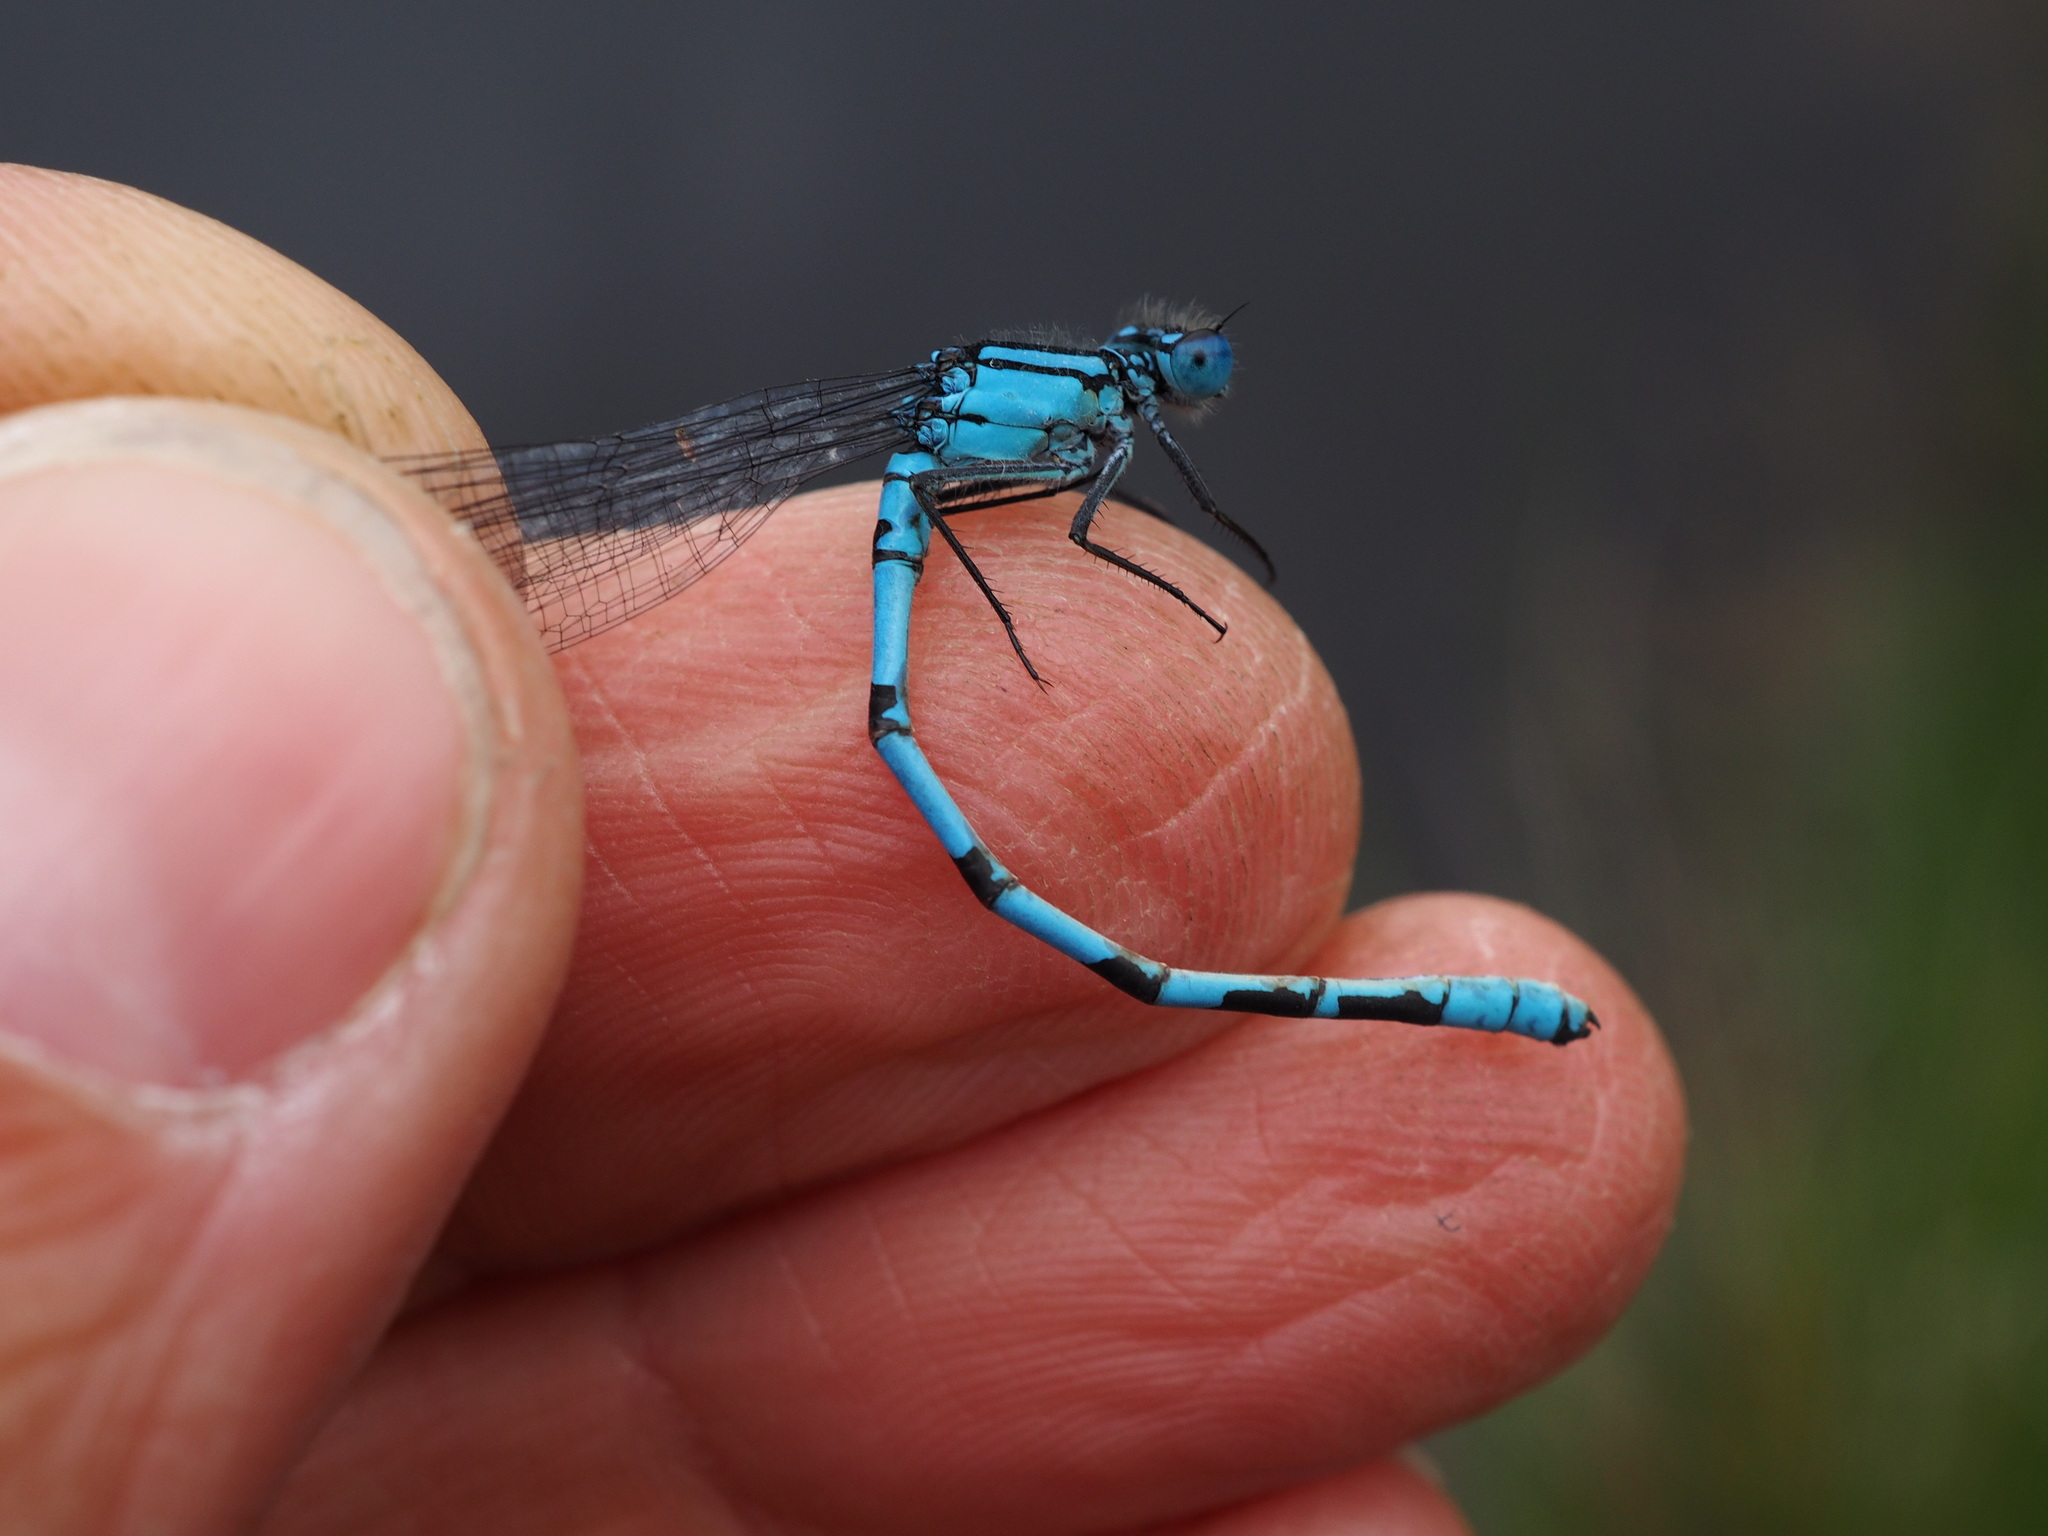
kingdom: Animalia
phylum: Arthropoda
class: Insecta
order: Odonata
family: Coenagrionidae
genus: Enallagma
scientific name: Enallagma cyathigerum
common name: Common blue damselfly
